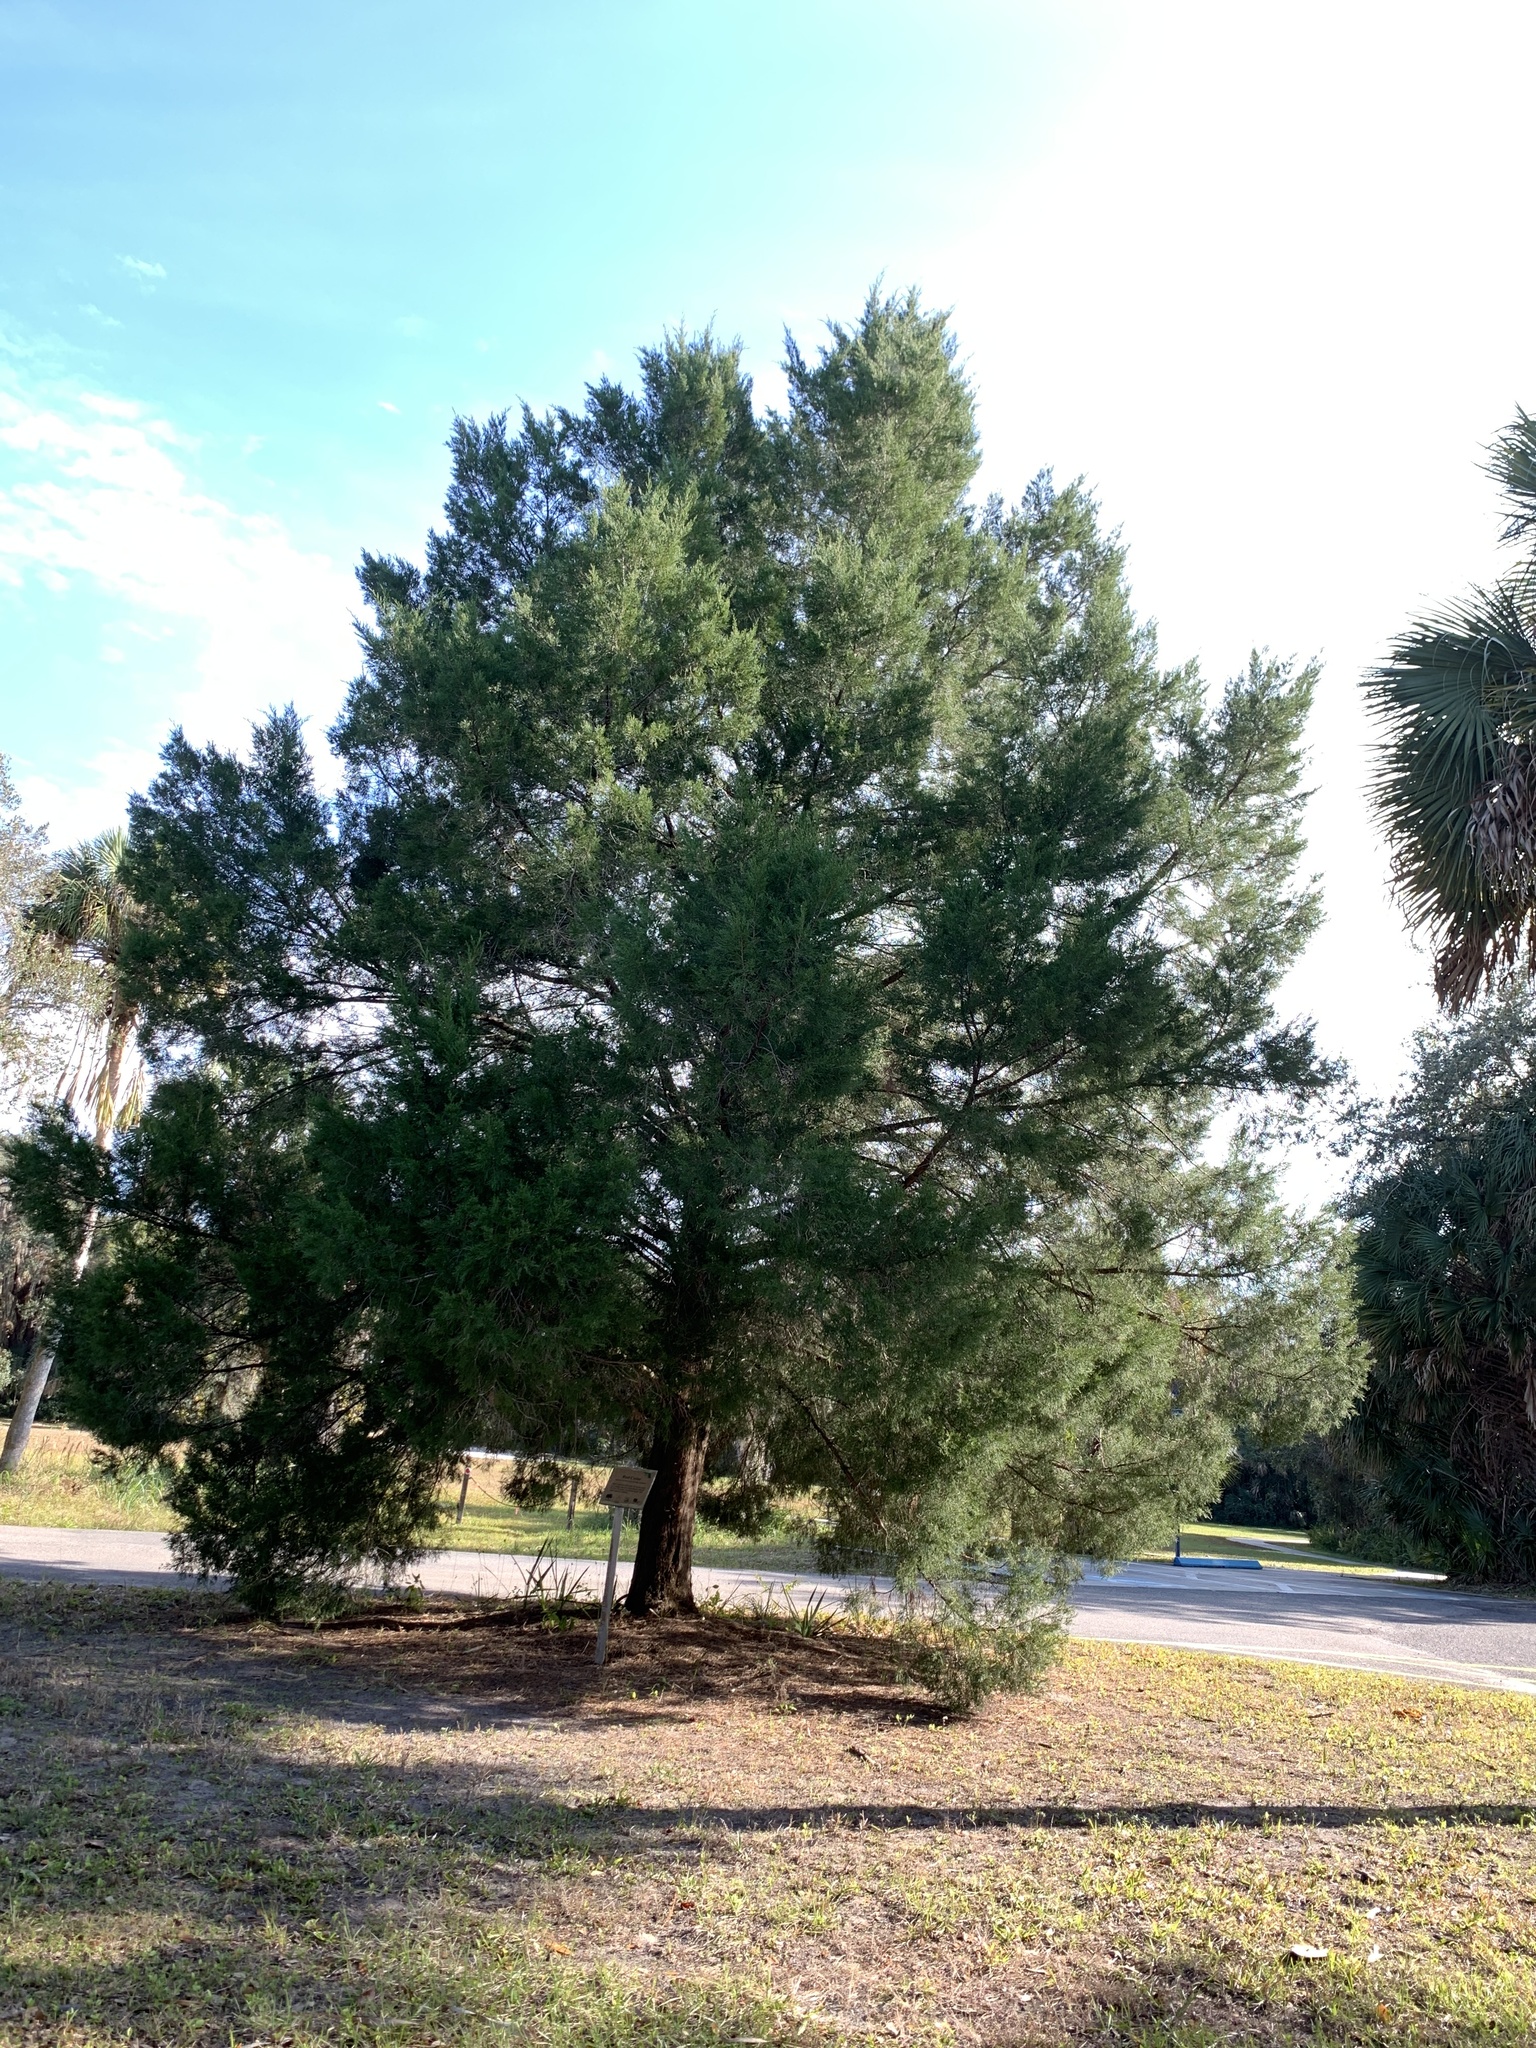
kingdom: Plantae
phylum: Tracheophyta
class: Pinopsida
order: Pinales
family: Cupressaceae
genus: Juniperus
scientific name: Juniperus virginiana
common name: Red juniper
